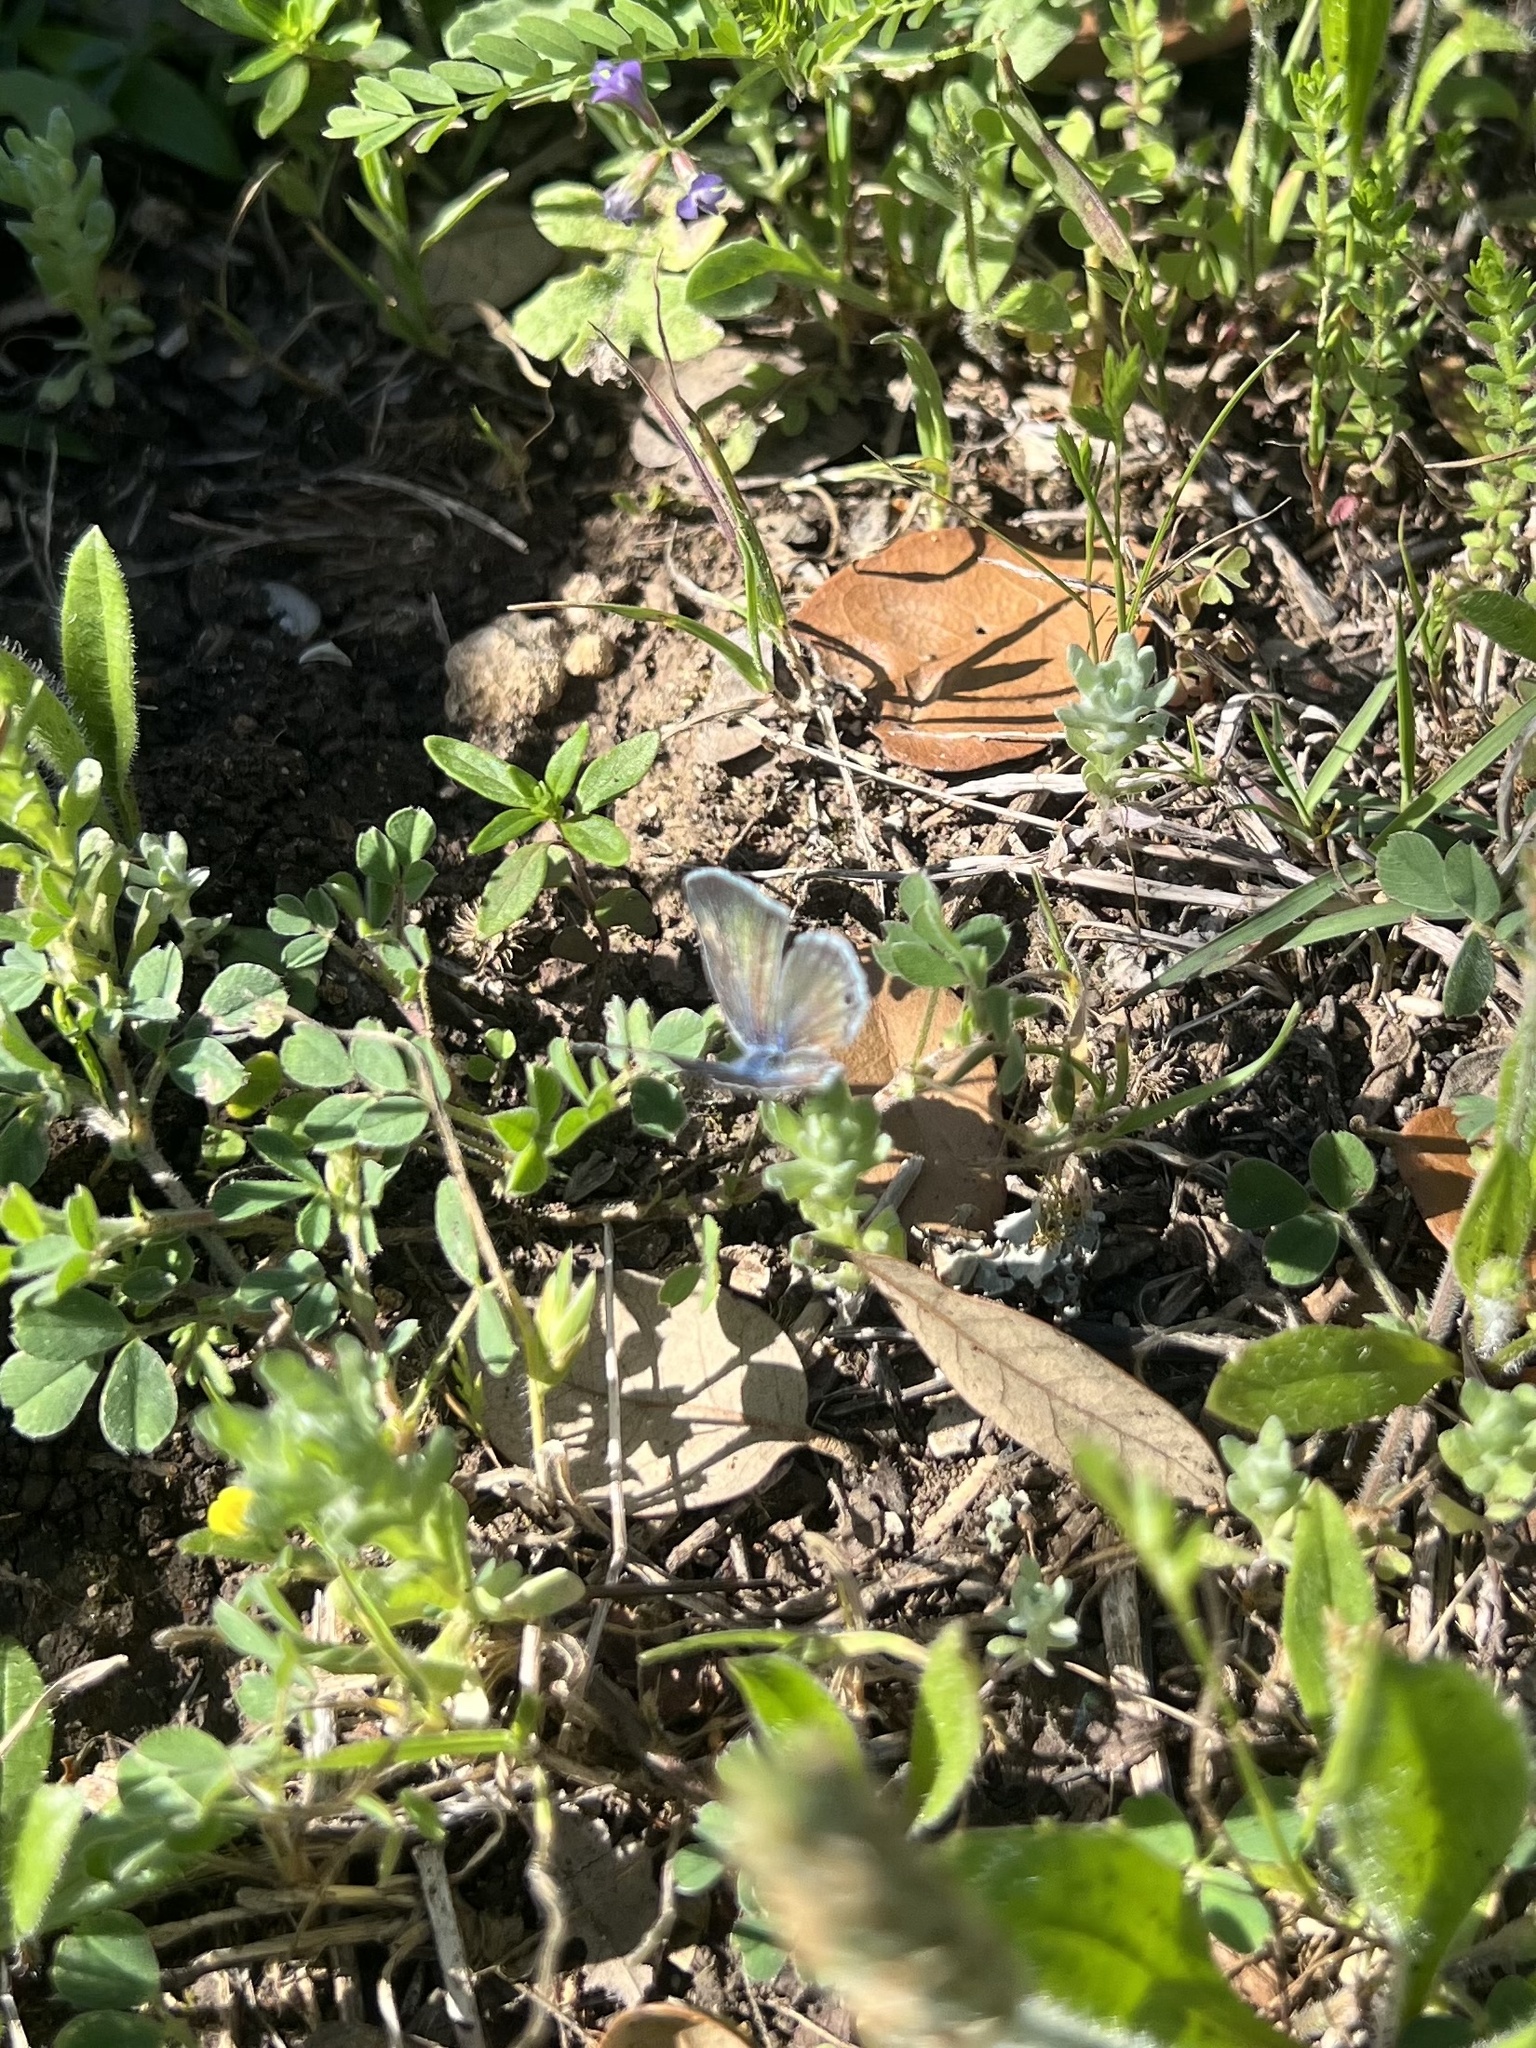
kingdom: Animalia
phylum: Arthropoda
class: Insecta
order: Lepidoptera
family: Lycaenidae
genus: Echinargus
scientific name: Echinargus isola
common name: Reakirt's blue
